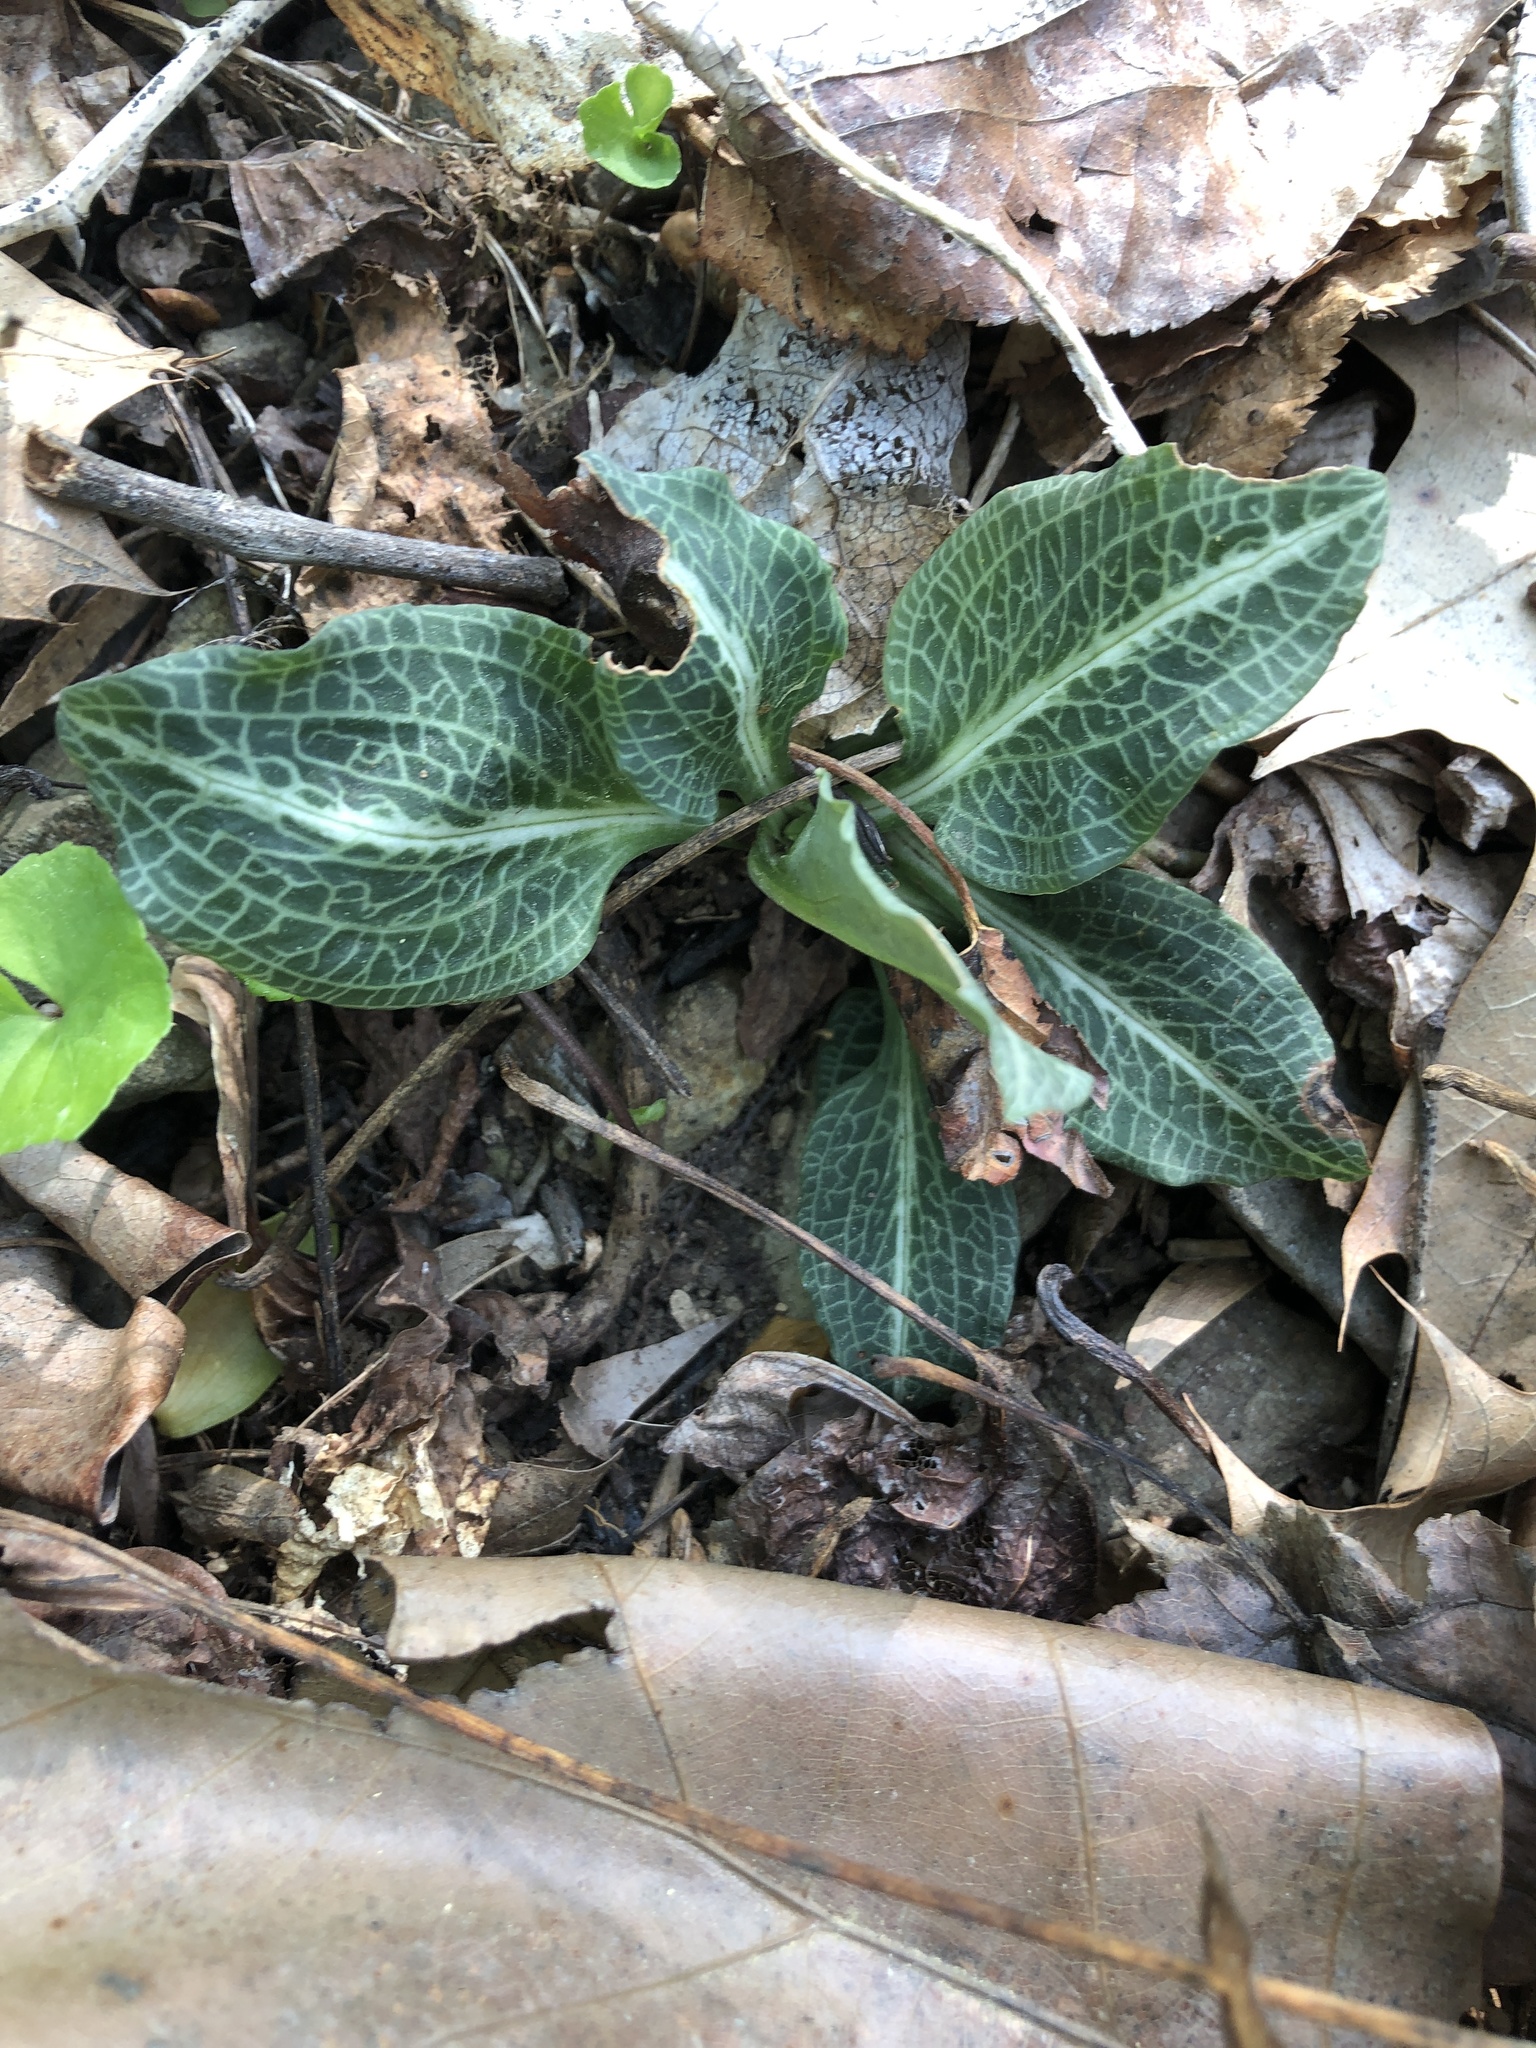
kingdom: Plantae
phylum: Tracheophyta
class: Liliopsida
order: Asparagales
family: Orchidaceae
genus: Goodyera
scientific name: Goodyera pubescens
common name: Downy rattlesnake-plantain
